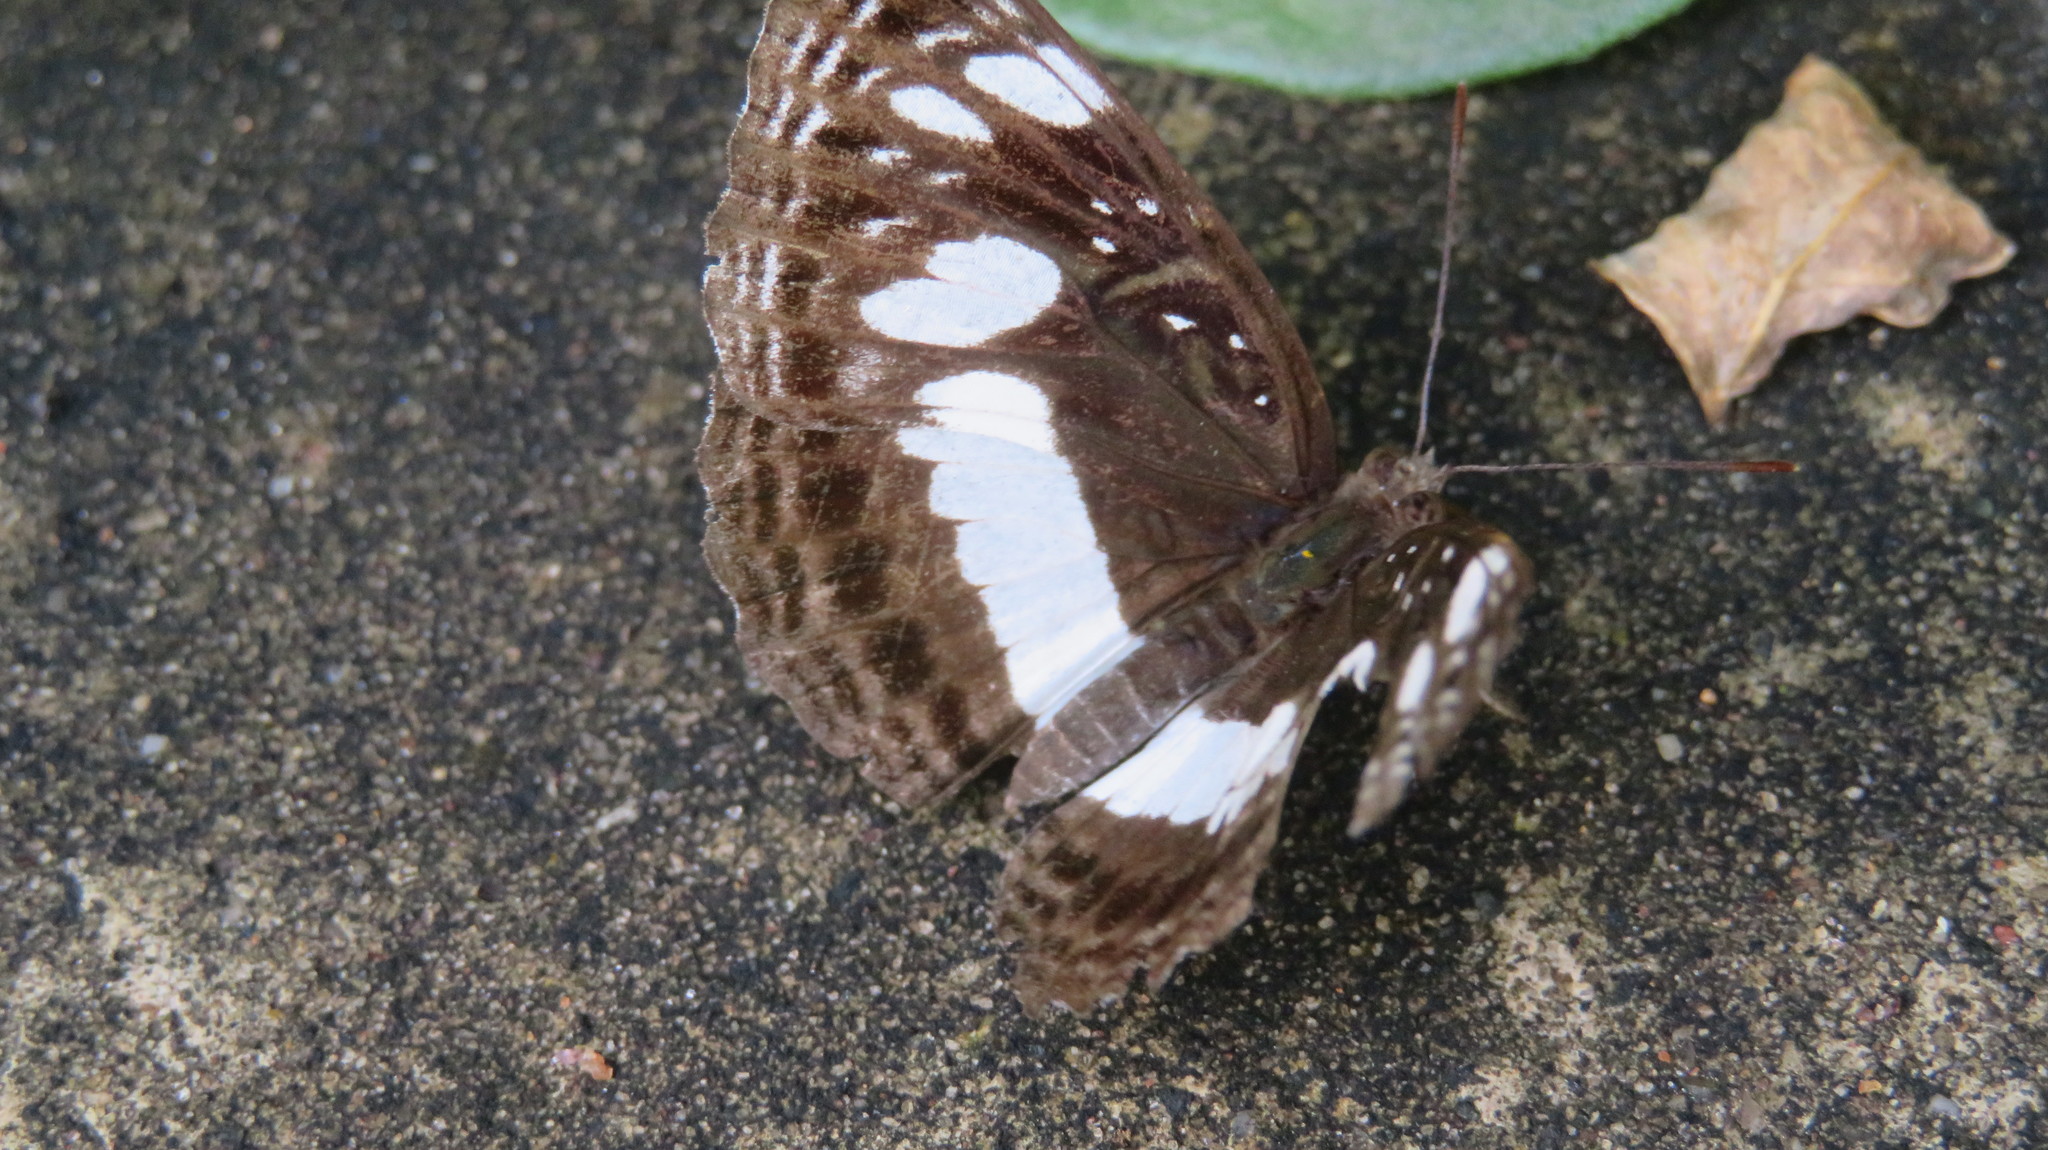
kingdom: Animalia
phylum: Arthropoda
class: Insecta
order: Lepidoptera
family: Nymphalidae
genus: Neptis
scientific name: Neptis saclava
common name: Small spotted sailor
